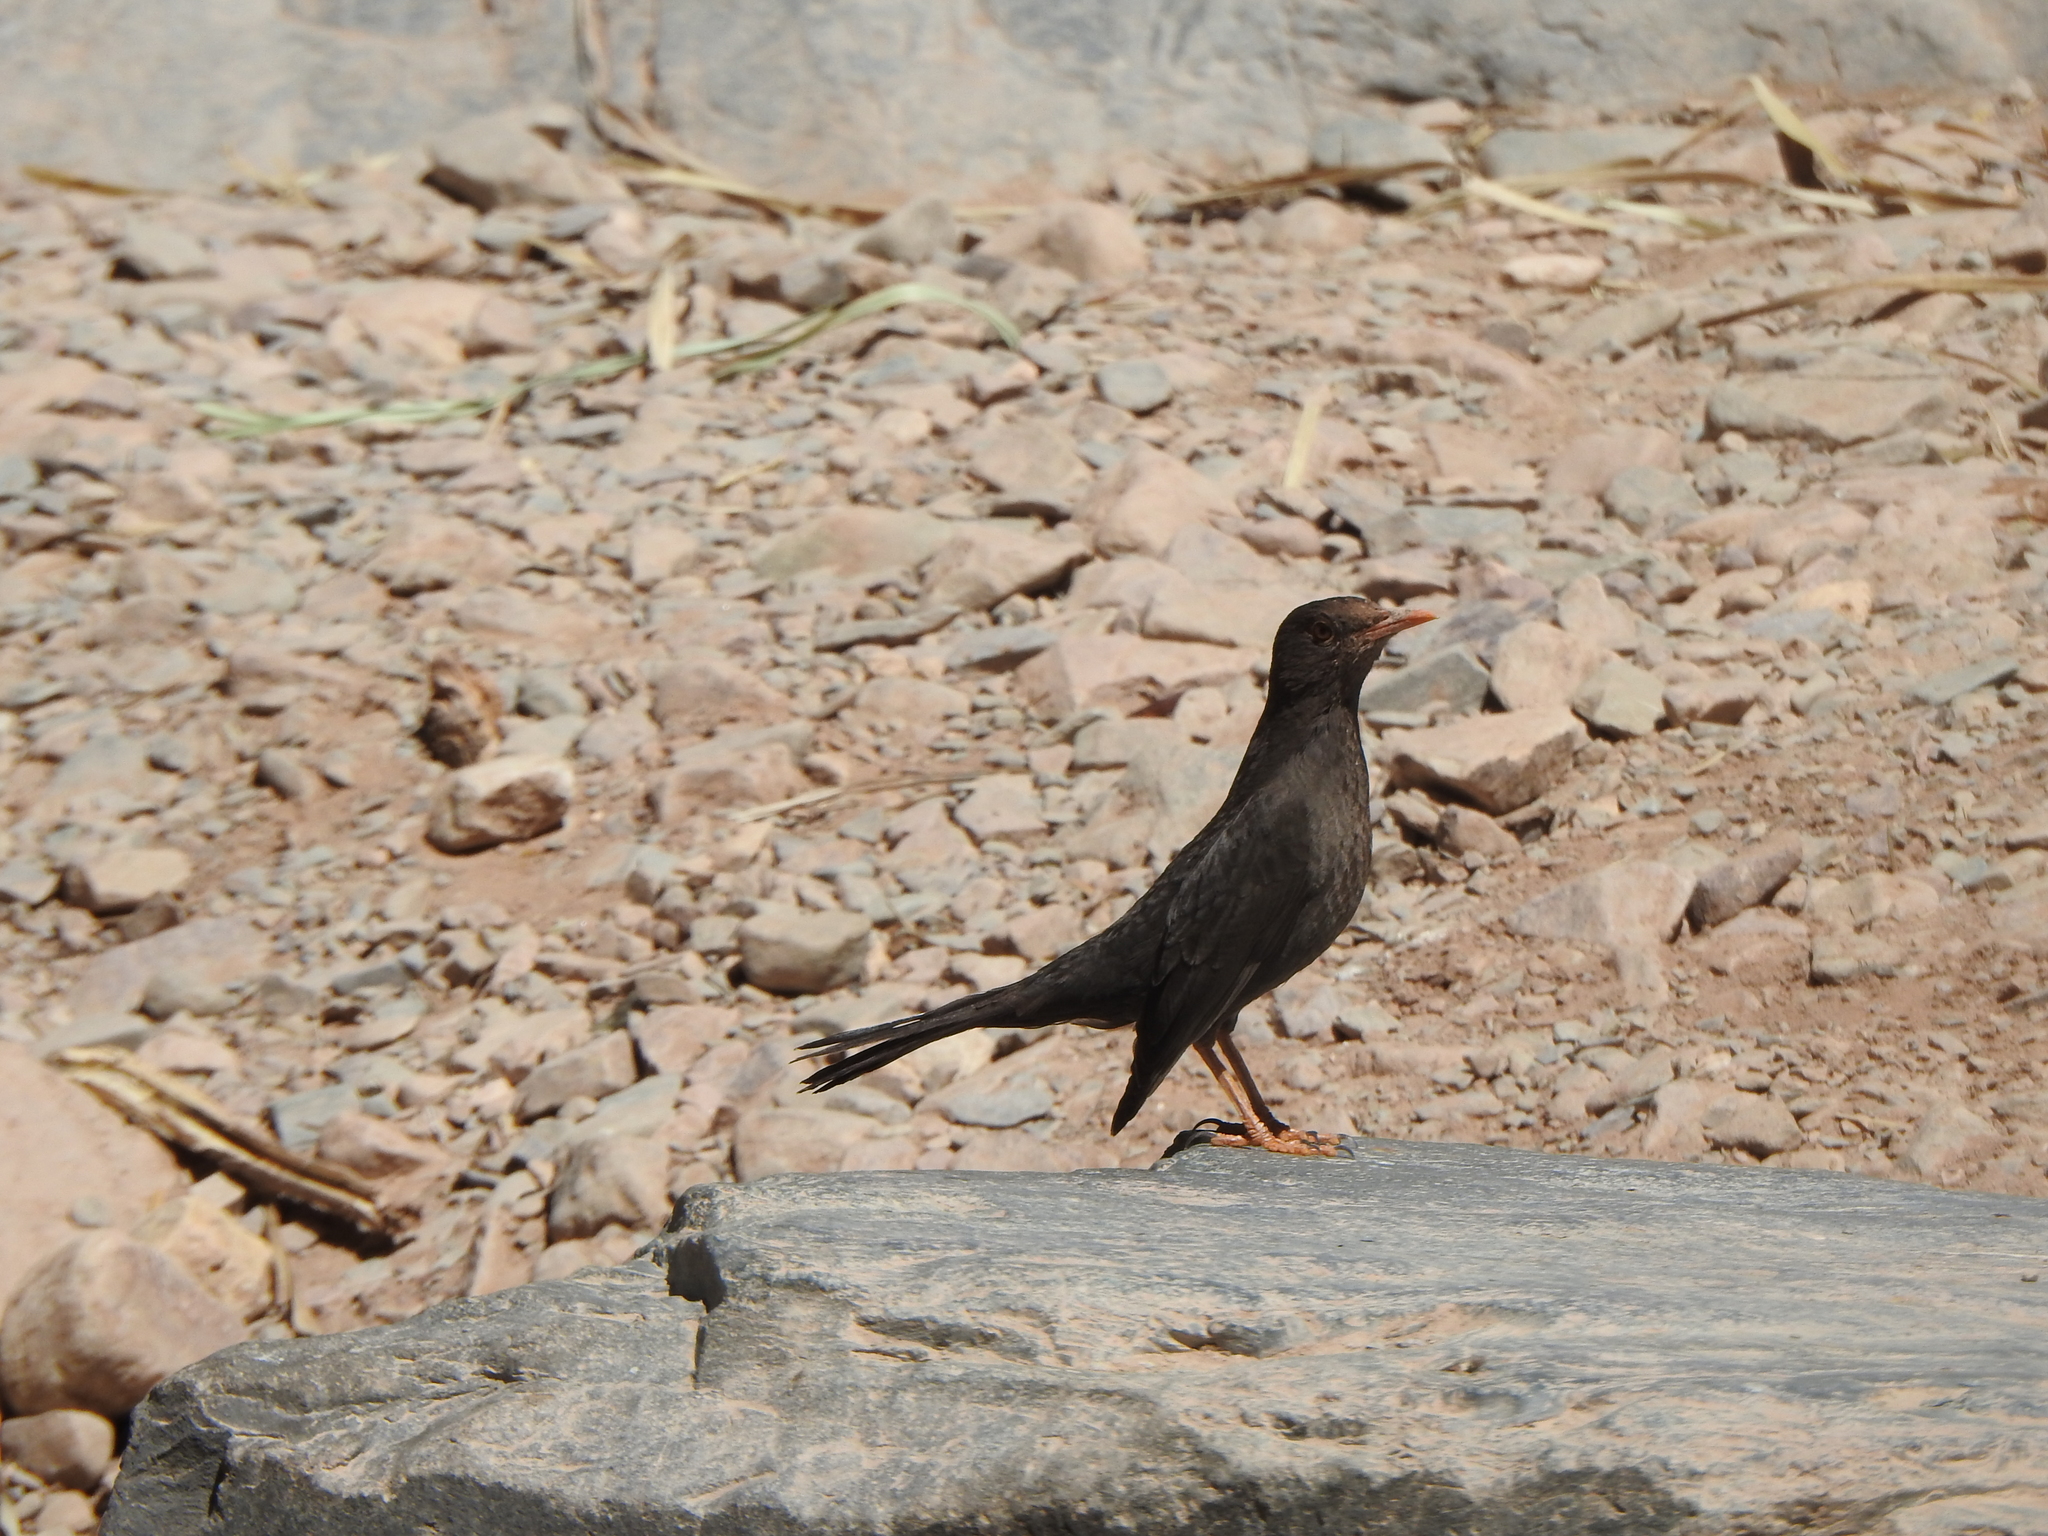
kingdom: Animalia
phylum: Chordata
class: Aves
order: Passeriformes
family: Turdidae
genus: Turdus
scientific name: Turdus chiguanco
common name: Chiguanco thrush
